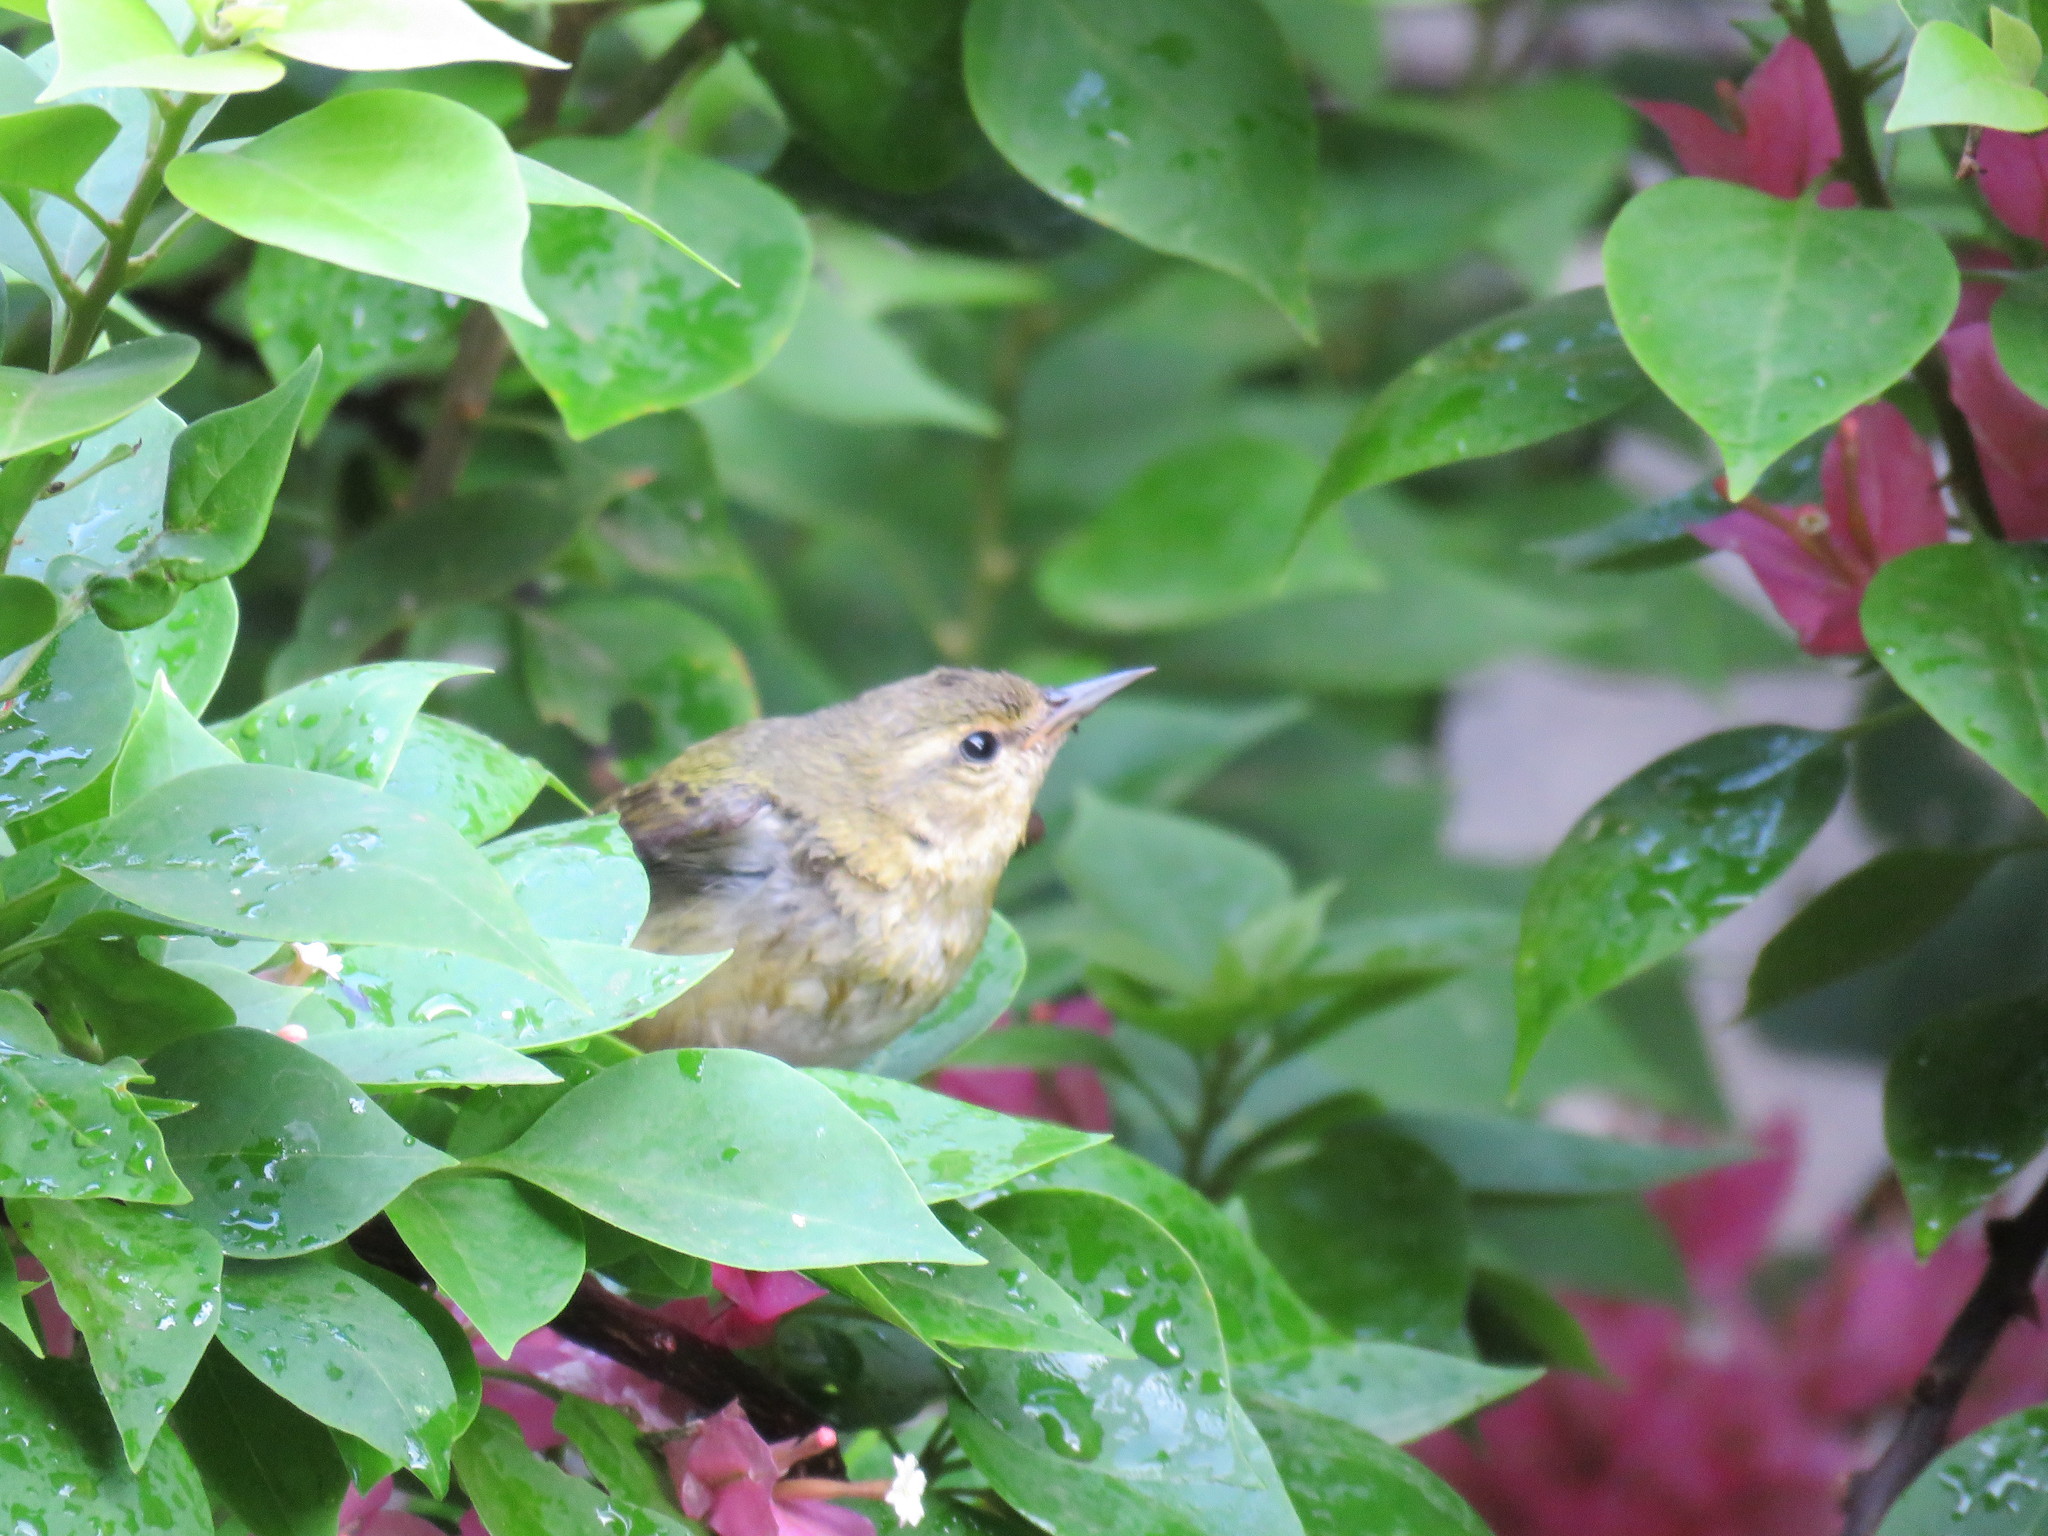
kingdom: Animalia
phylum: Chordata
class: Aves
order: Passeriformes
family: Parulidae
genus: Leiothlypis
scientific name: Leiothlypis peregrina
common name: Tennessee warbler
